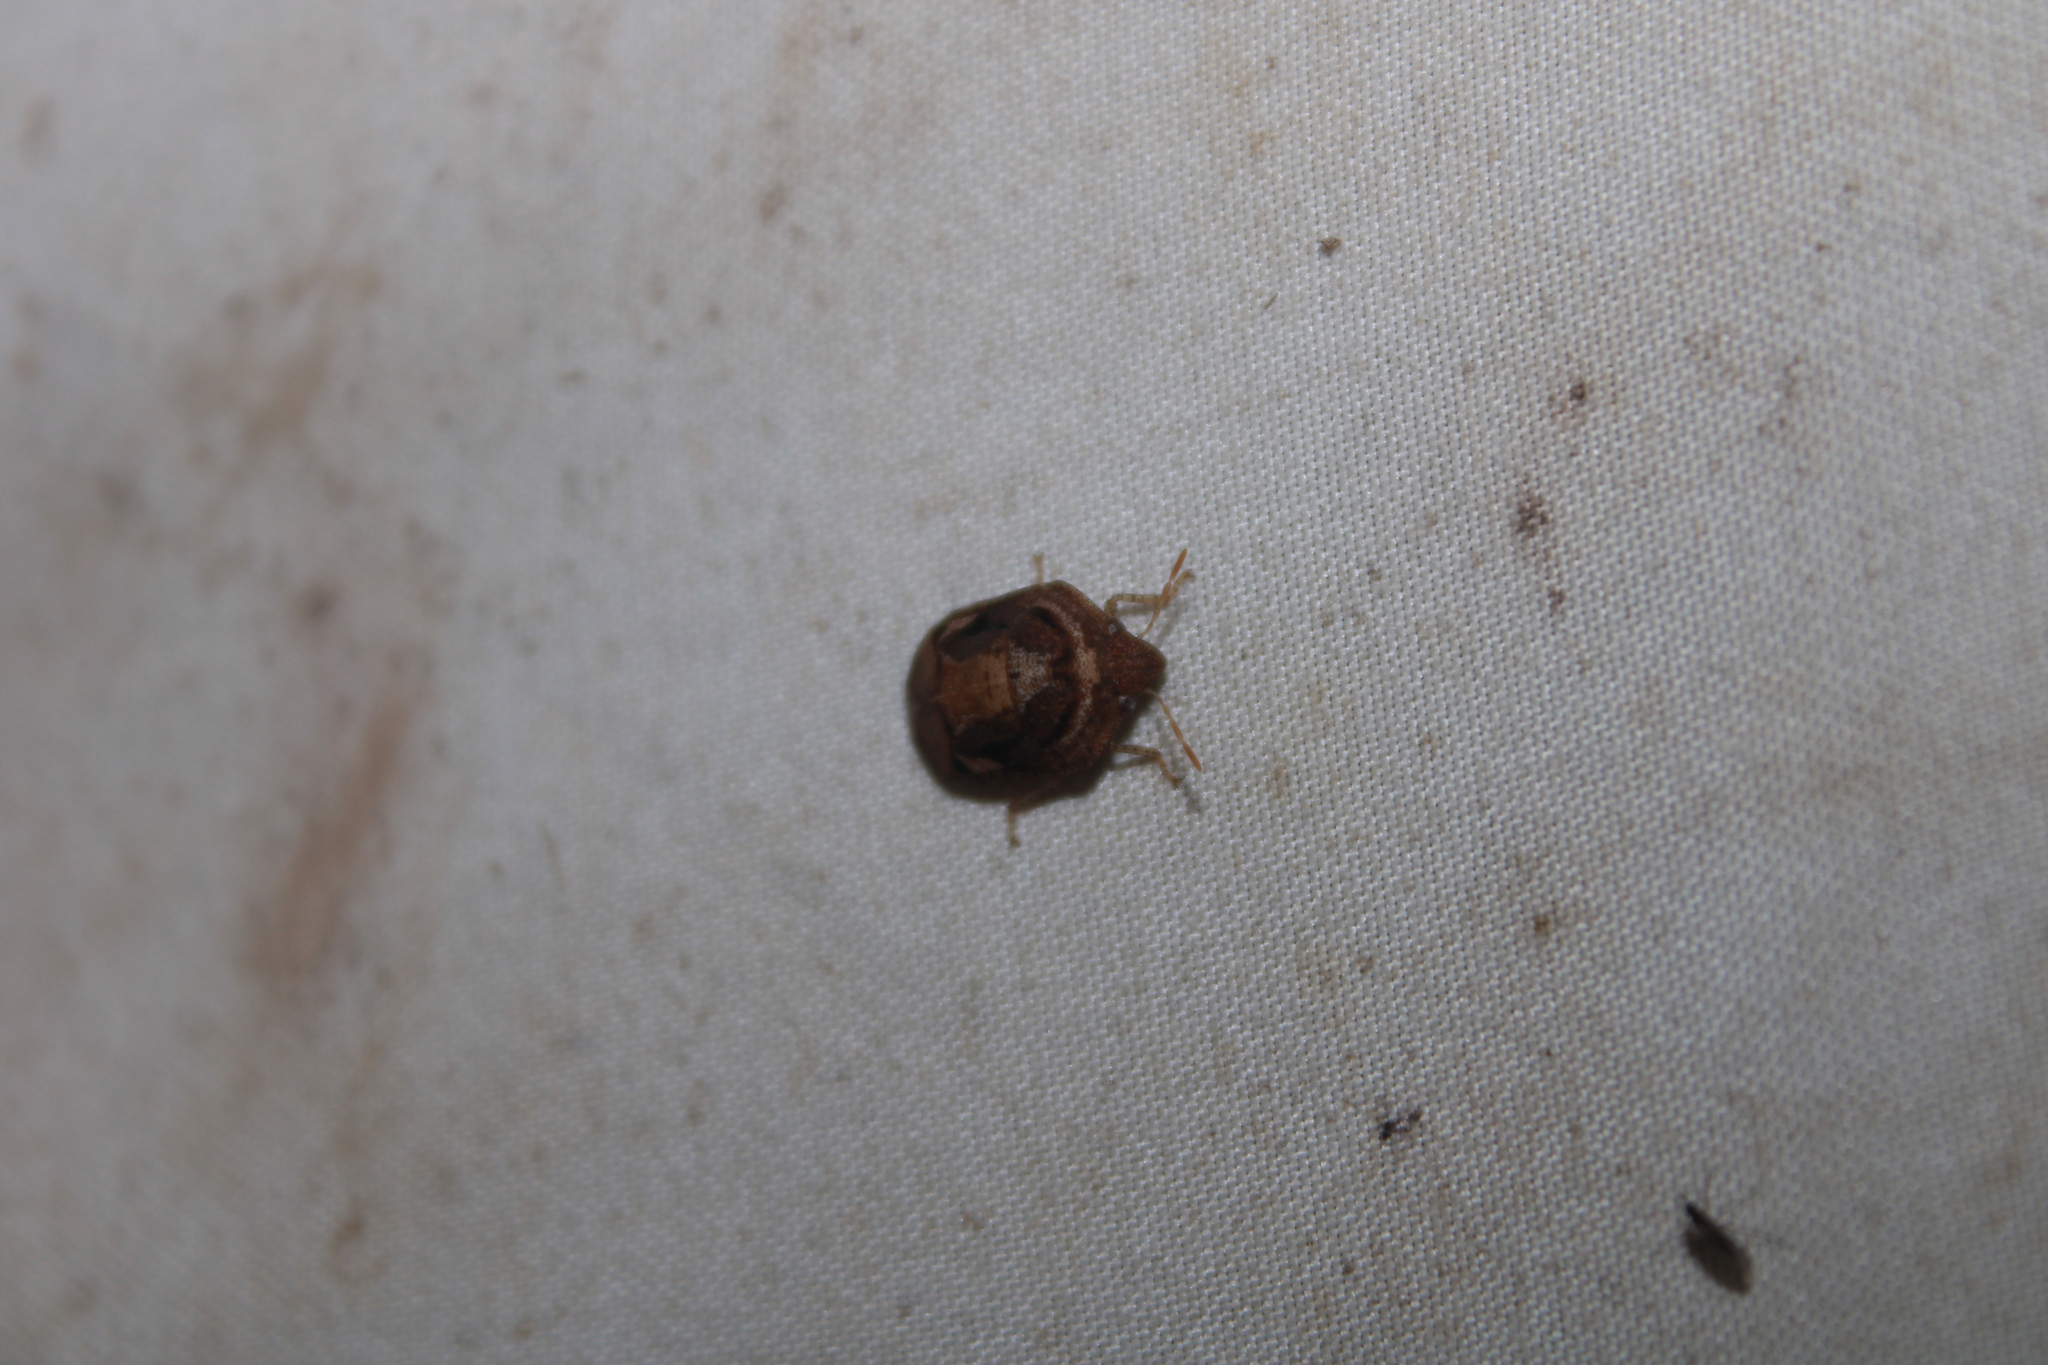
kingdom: Animalia
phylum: Arthropoda
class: Insecta
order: Hemiptera
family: Scutelleridae
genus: Symphylus
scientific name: Symphylus caribbeanus
